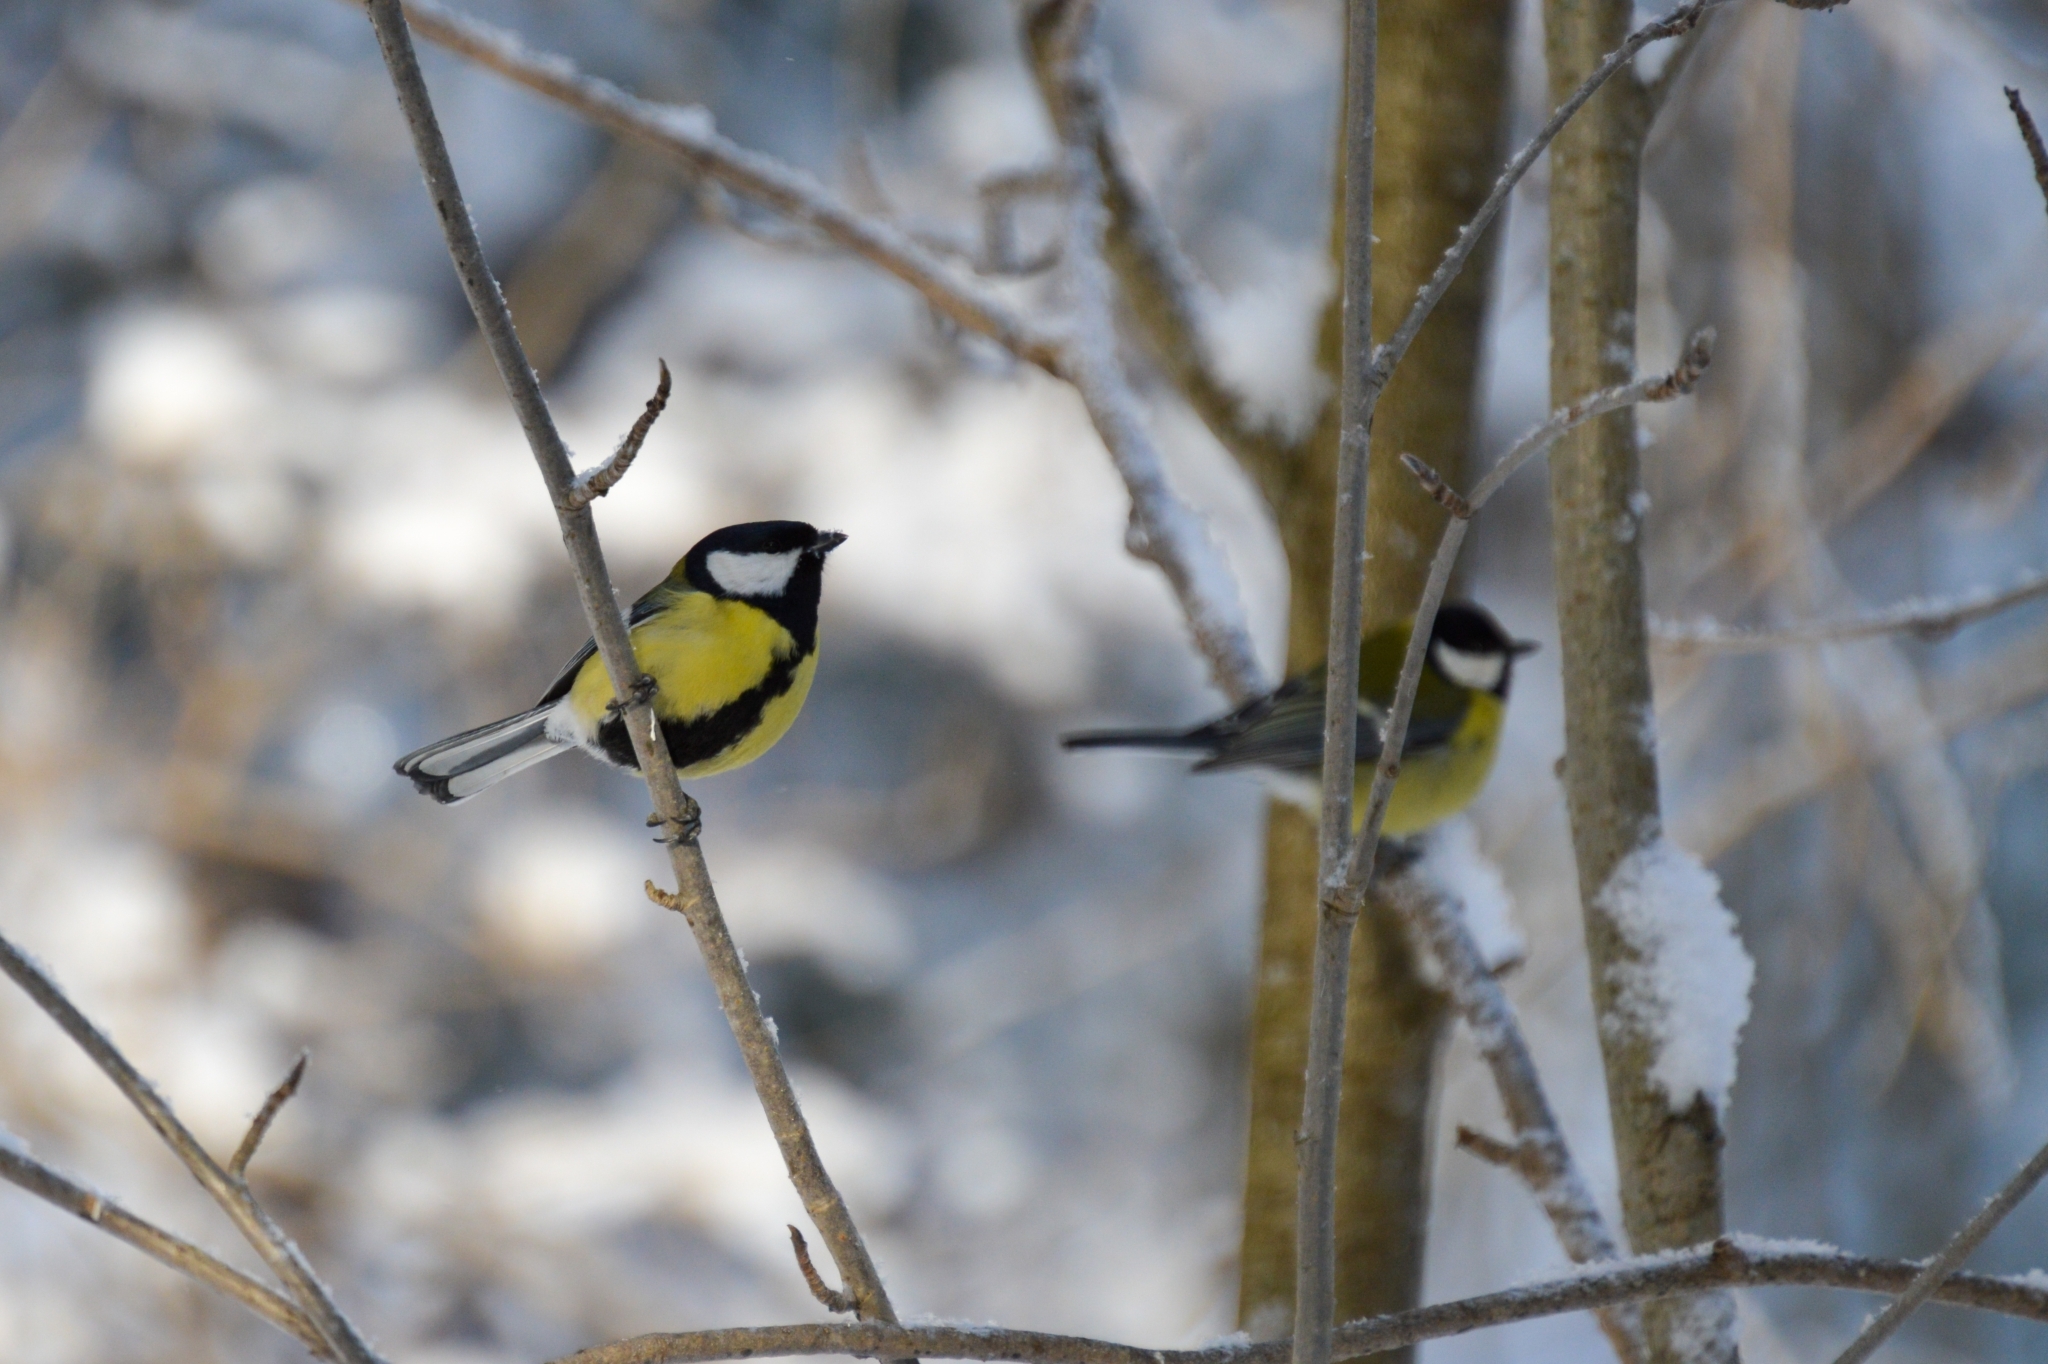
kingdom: Animalia
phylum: Chordata
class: Aves
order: Passeriformes
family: Paridae
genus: Parus
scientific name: Parus major
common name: Great tit
